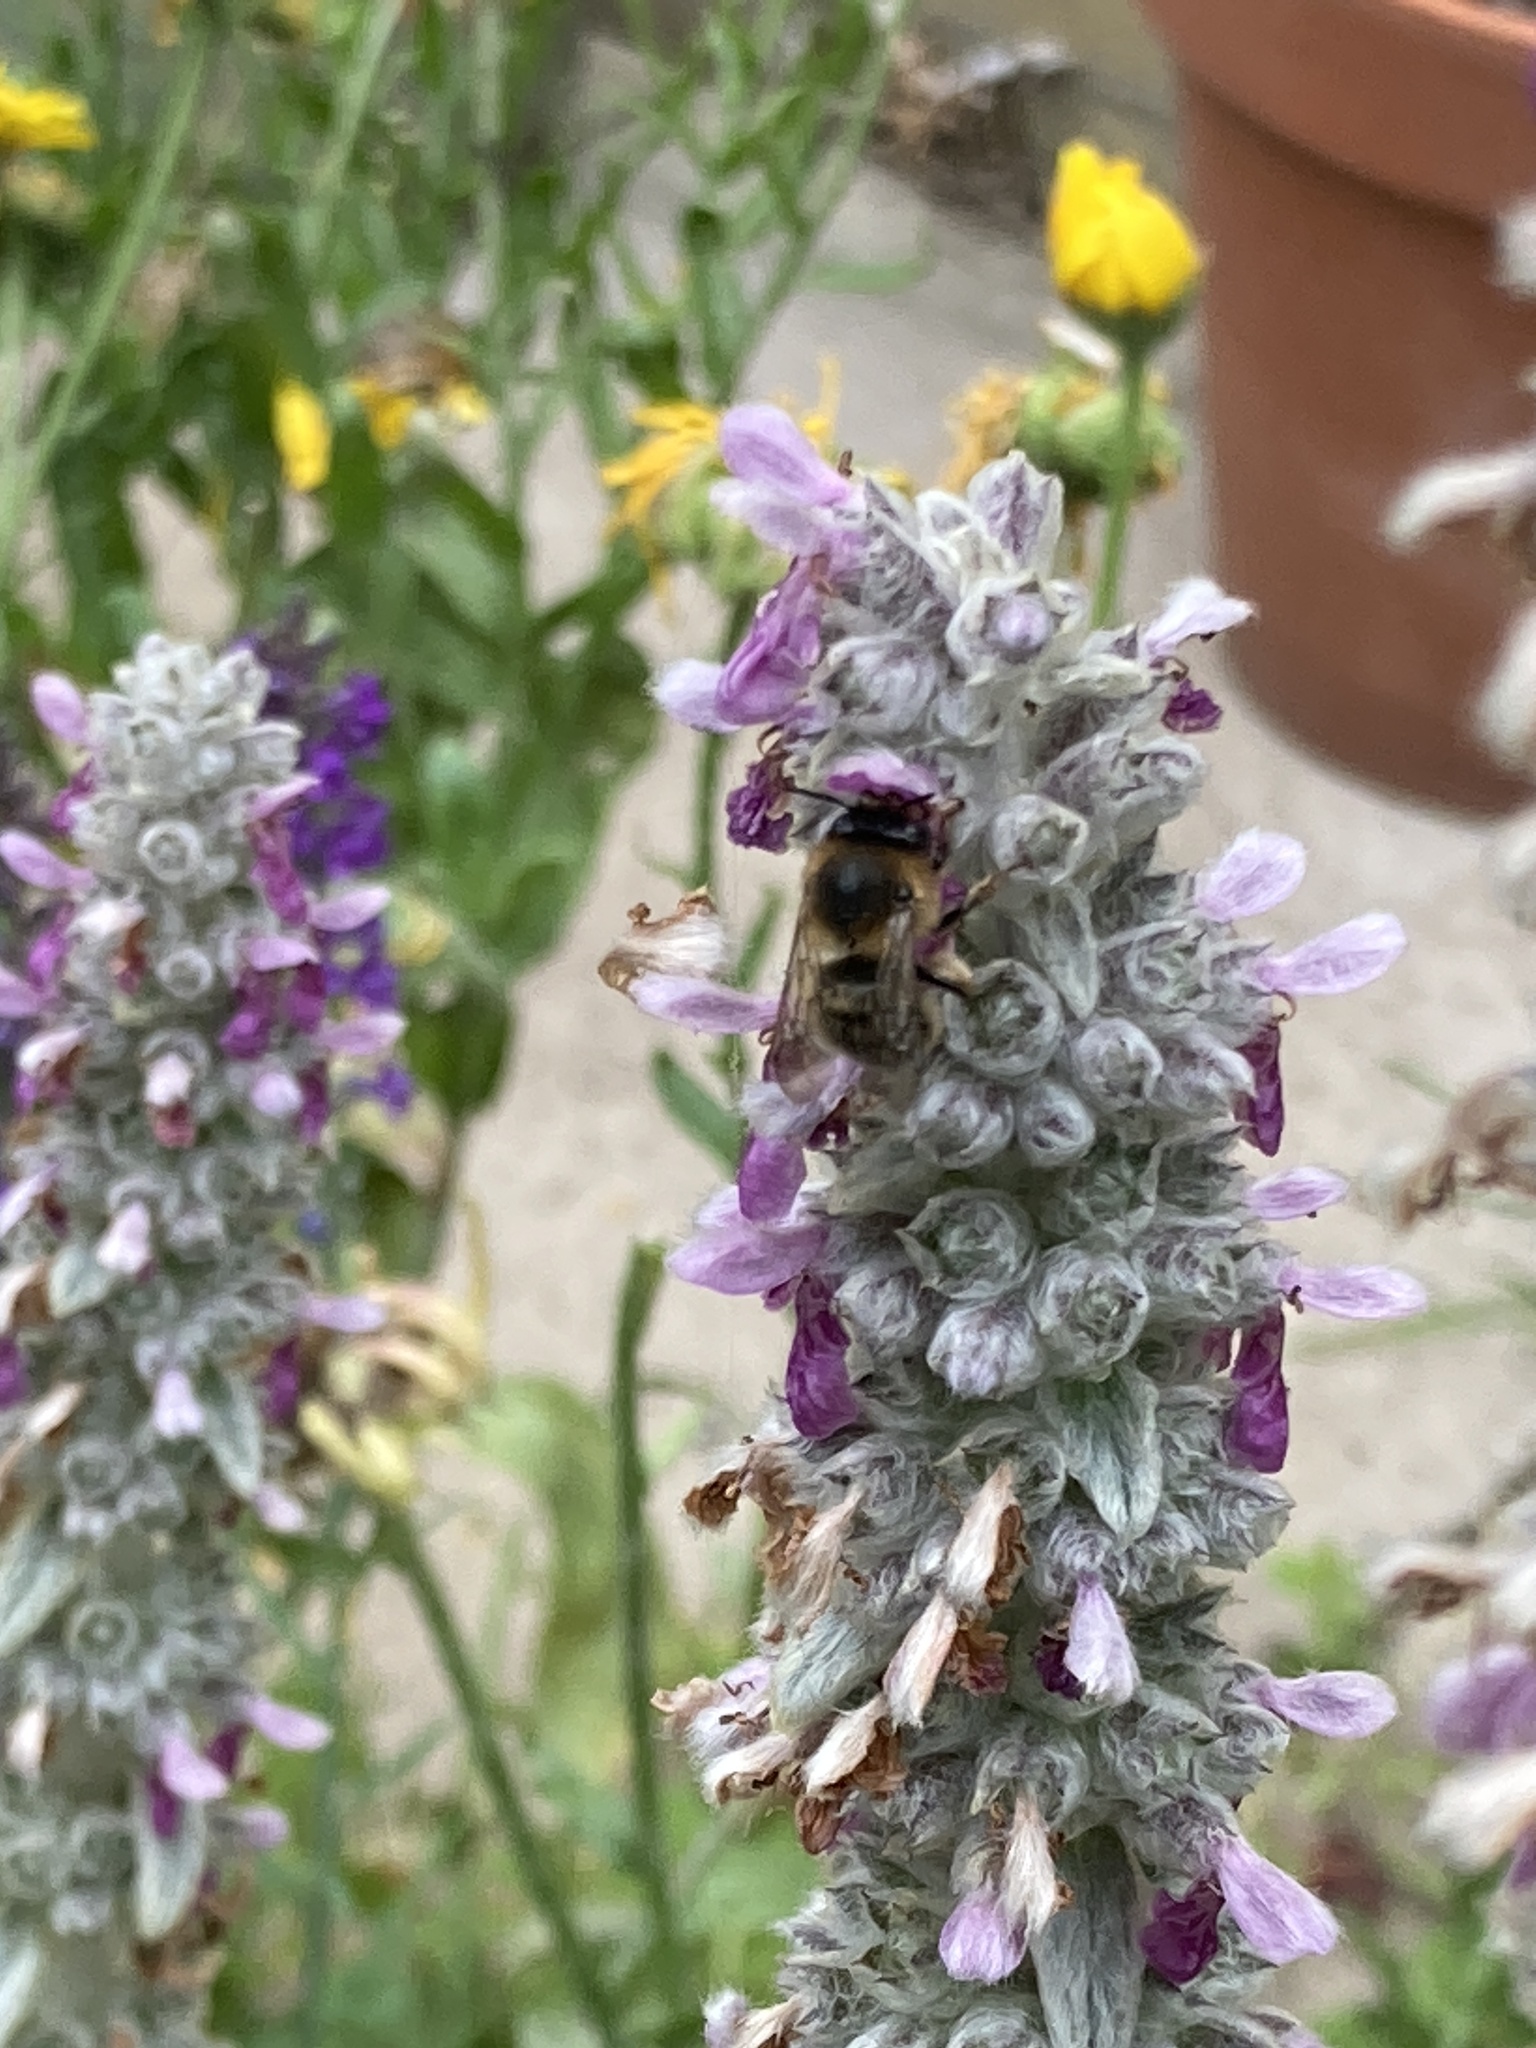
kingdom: Animalia
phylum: Arthropoda
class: Insecta
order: Hymenoptera
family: Apidae
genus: Anthophora
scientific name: Anthophora furcata
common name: Fork-tailed flower bee
